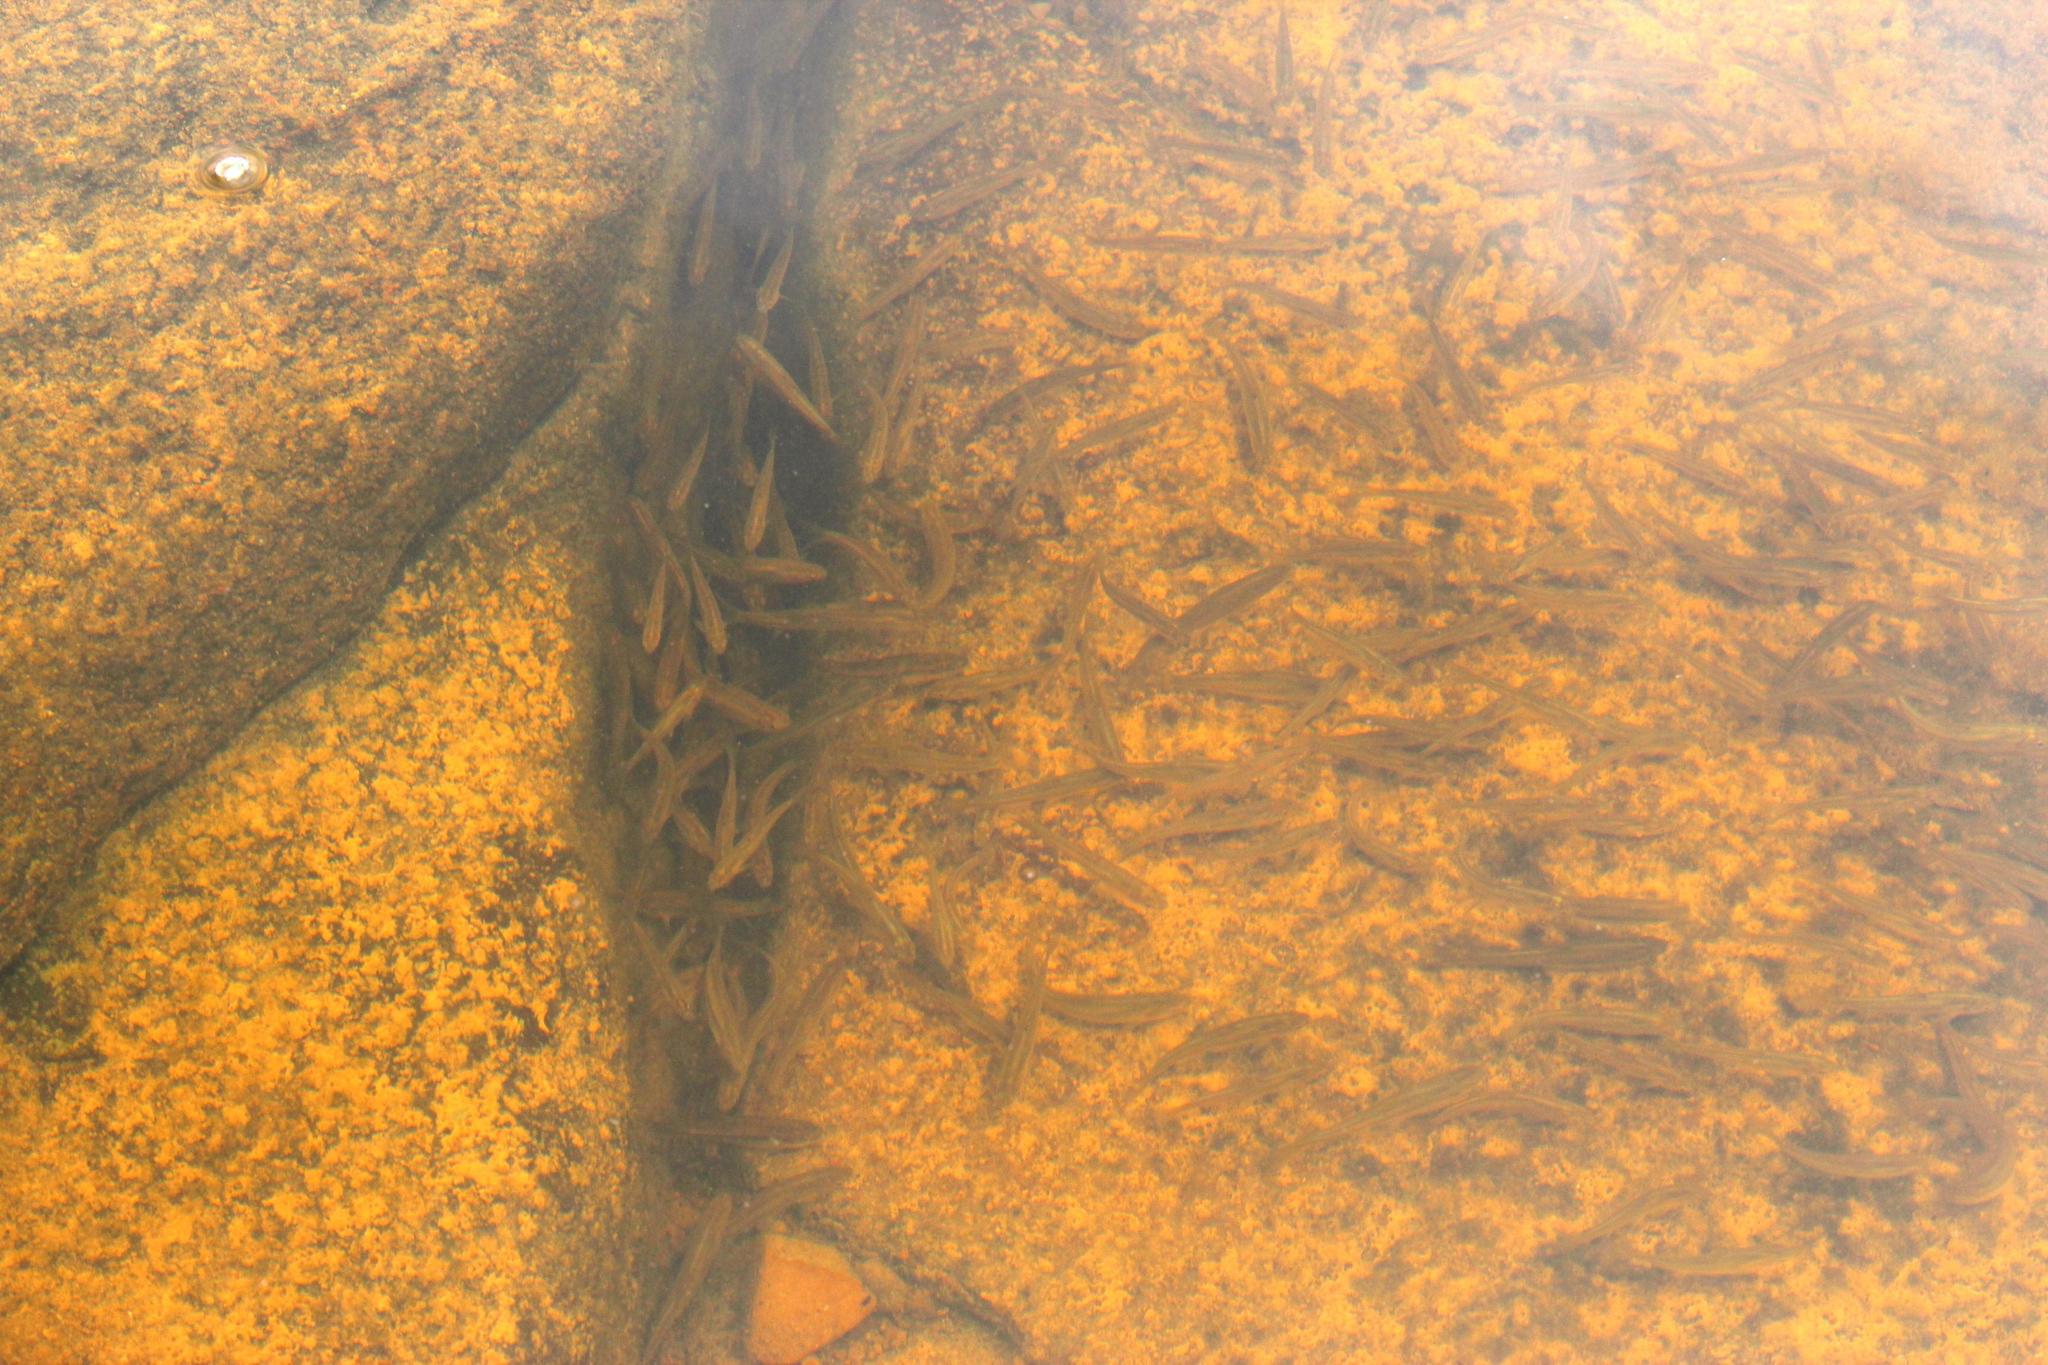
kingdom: Animalia
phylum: Chordata
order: Cypriniformes
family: Cyprinidae
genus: Enteromius
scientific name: Enteromius
